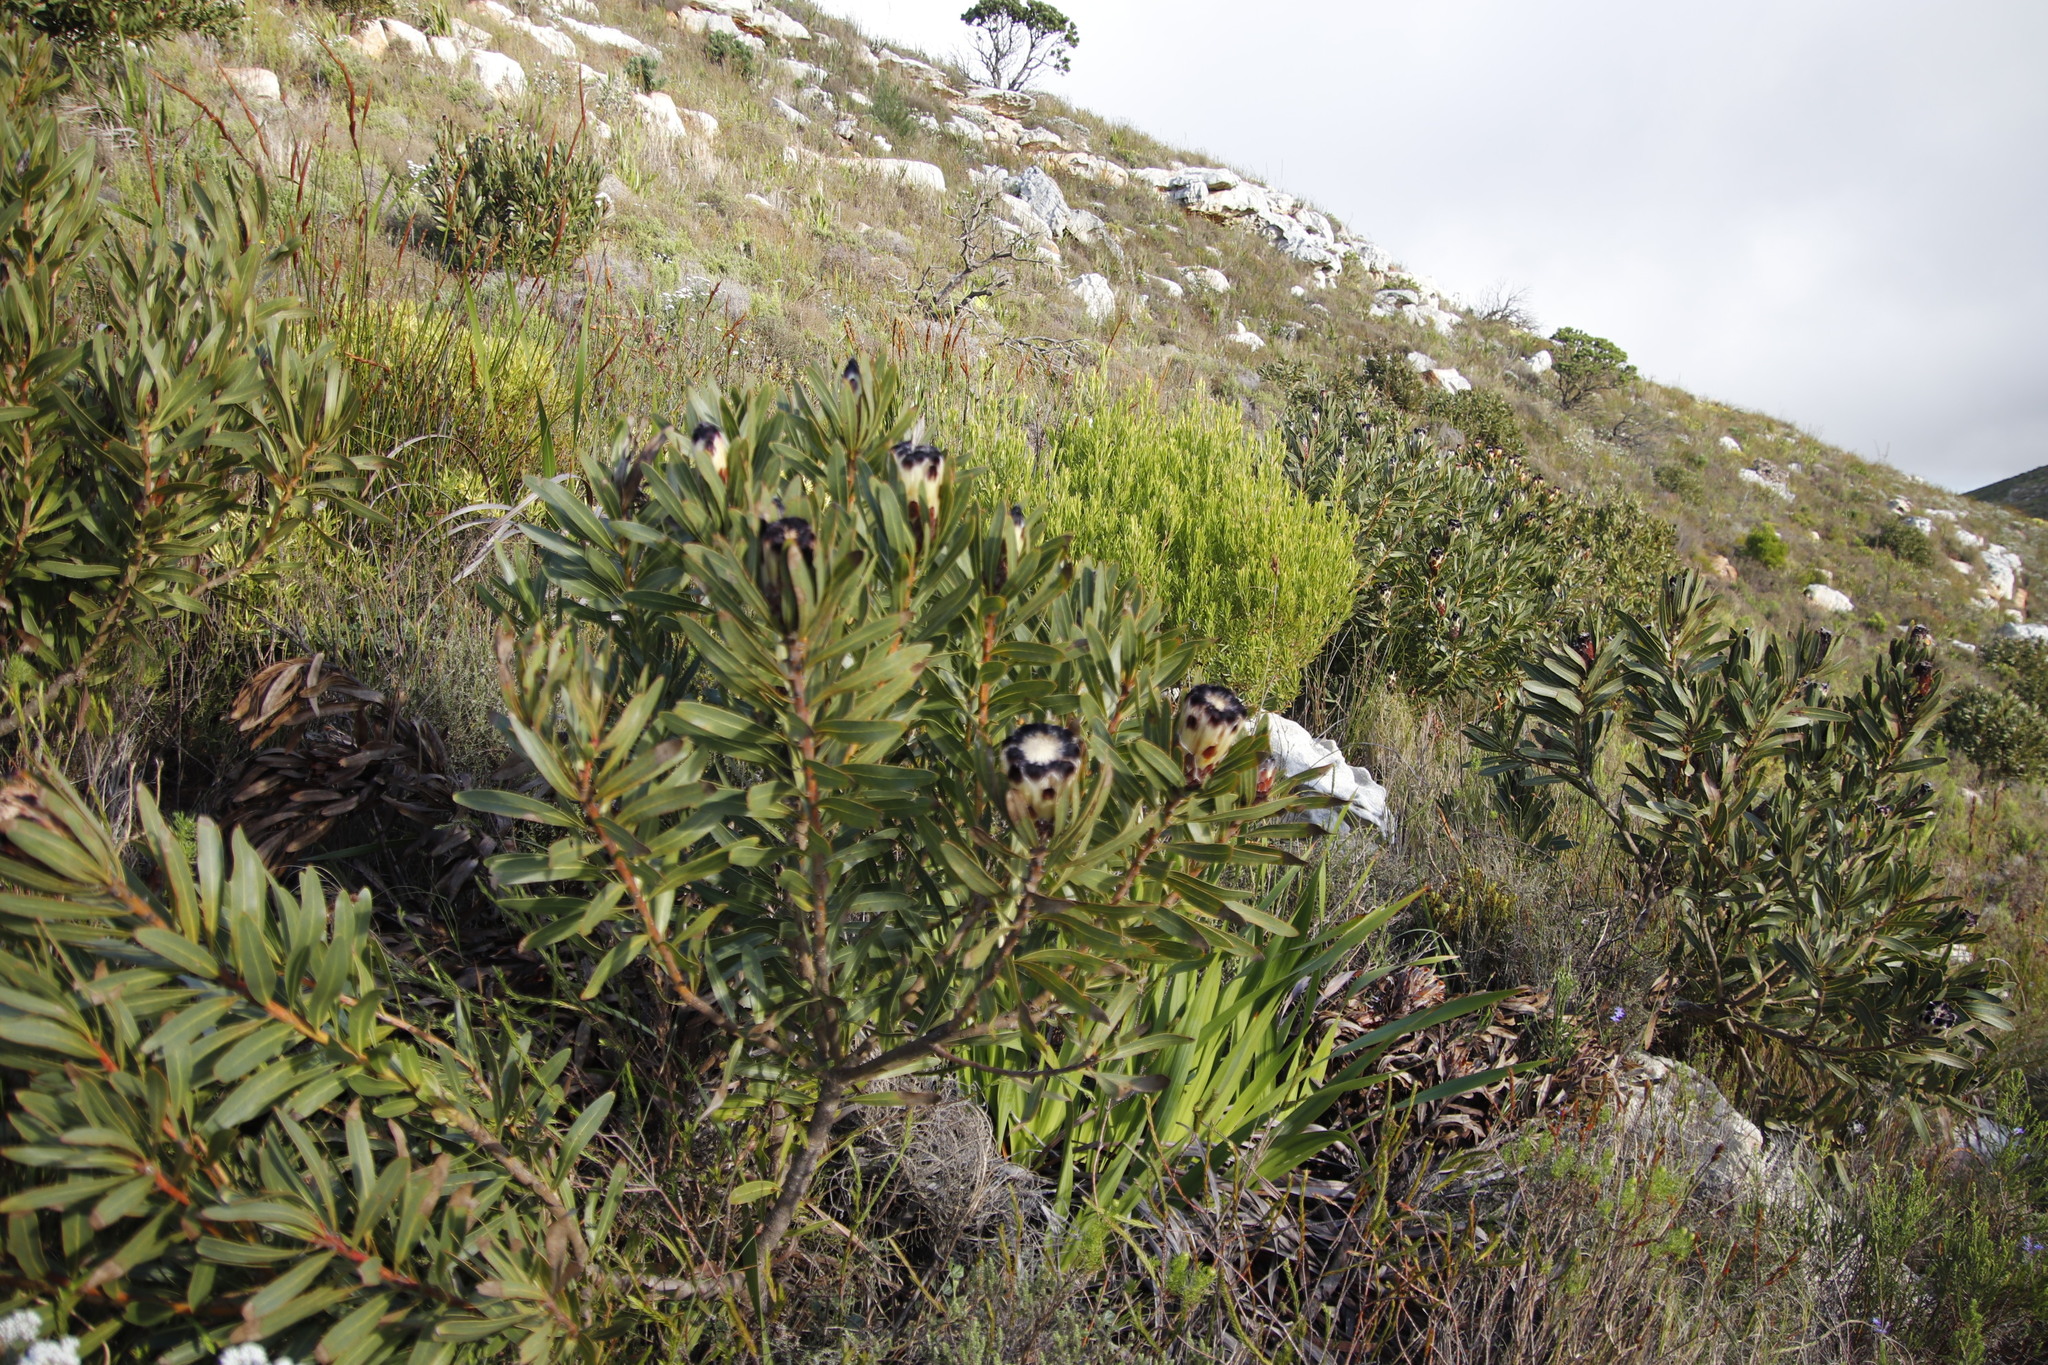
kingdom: Plantae
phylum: Tracheophyta
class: Magnoliopsida
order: Proteales
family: Proteaceae
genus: Protea
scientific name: Protea lepidocarpodendron
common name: Black-bearded protea
